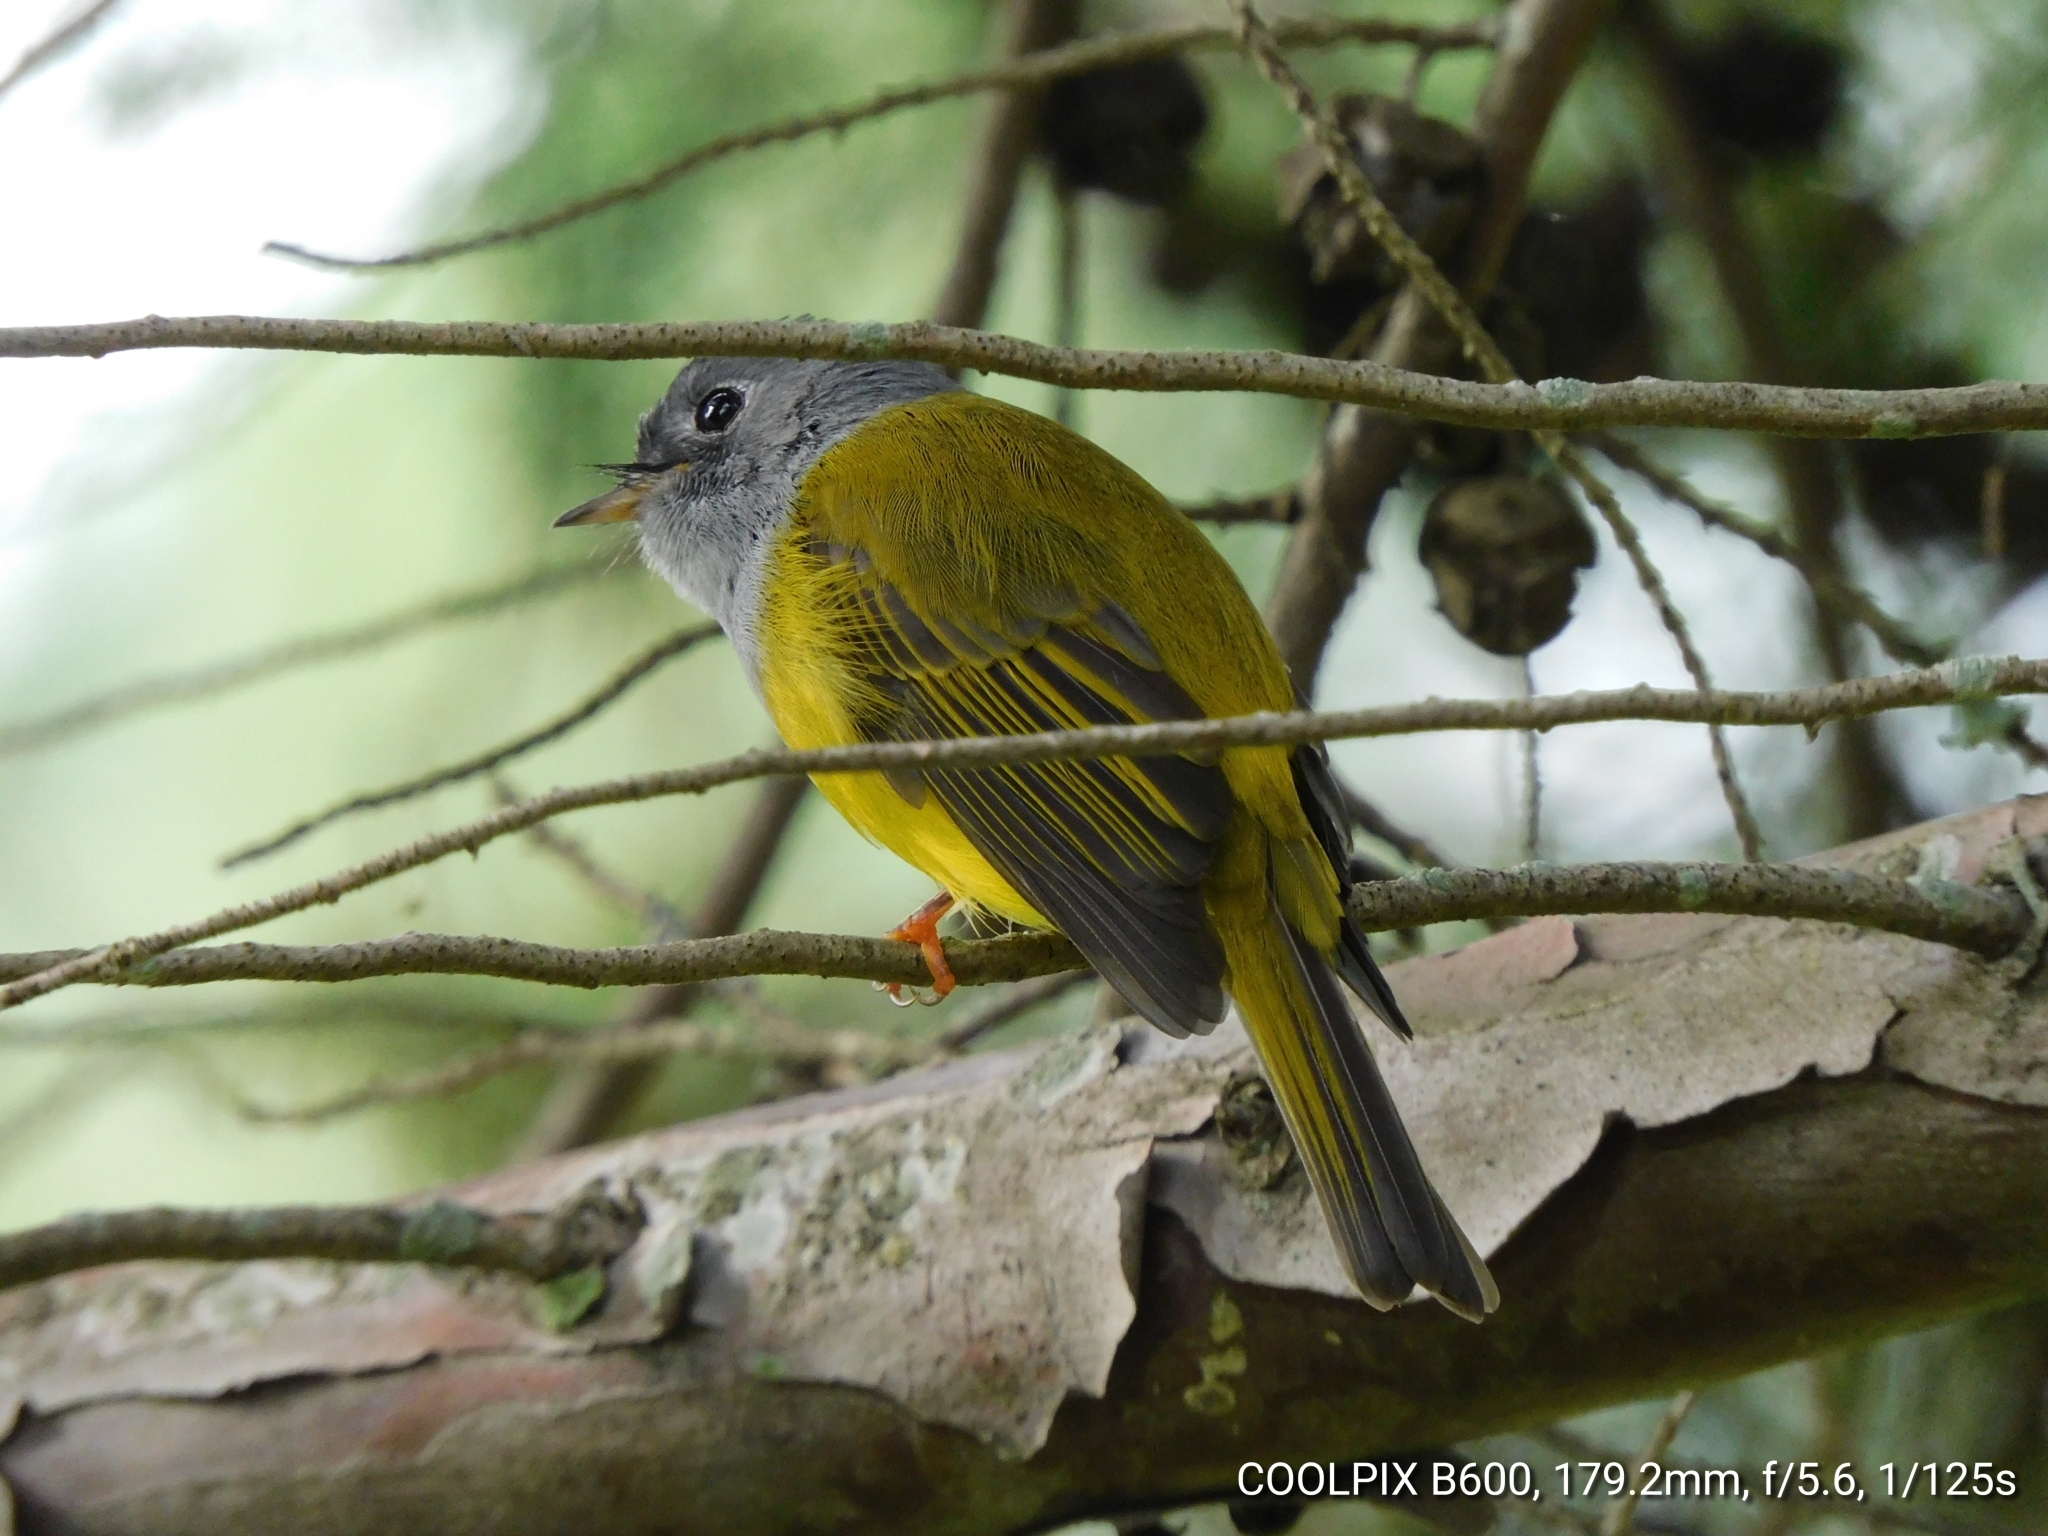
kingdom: Animalia
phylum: Chordata
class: Aves
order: Passeriformes
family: Stenostiridae
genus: Culicicapa
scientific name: Culicicapa ceylonensis
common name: Grey-headed canary-flycatcher
